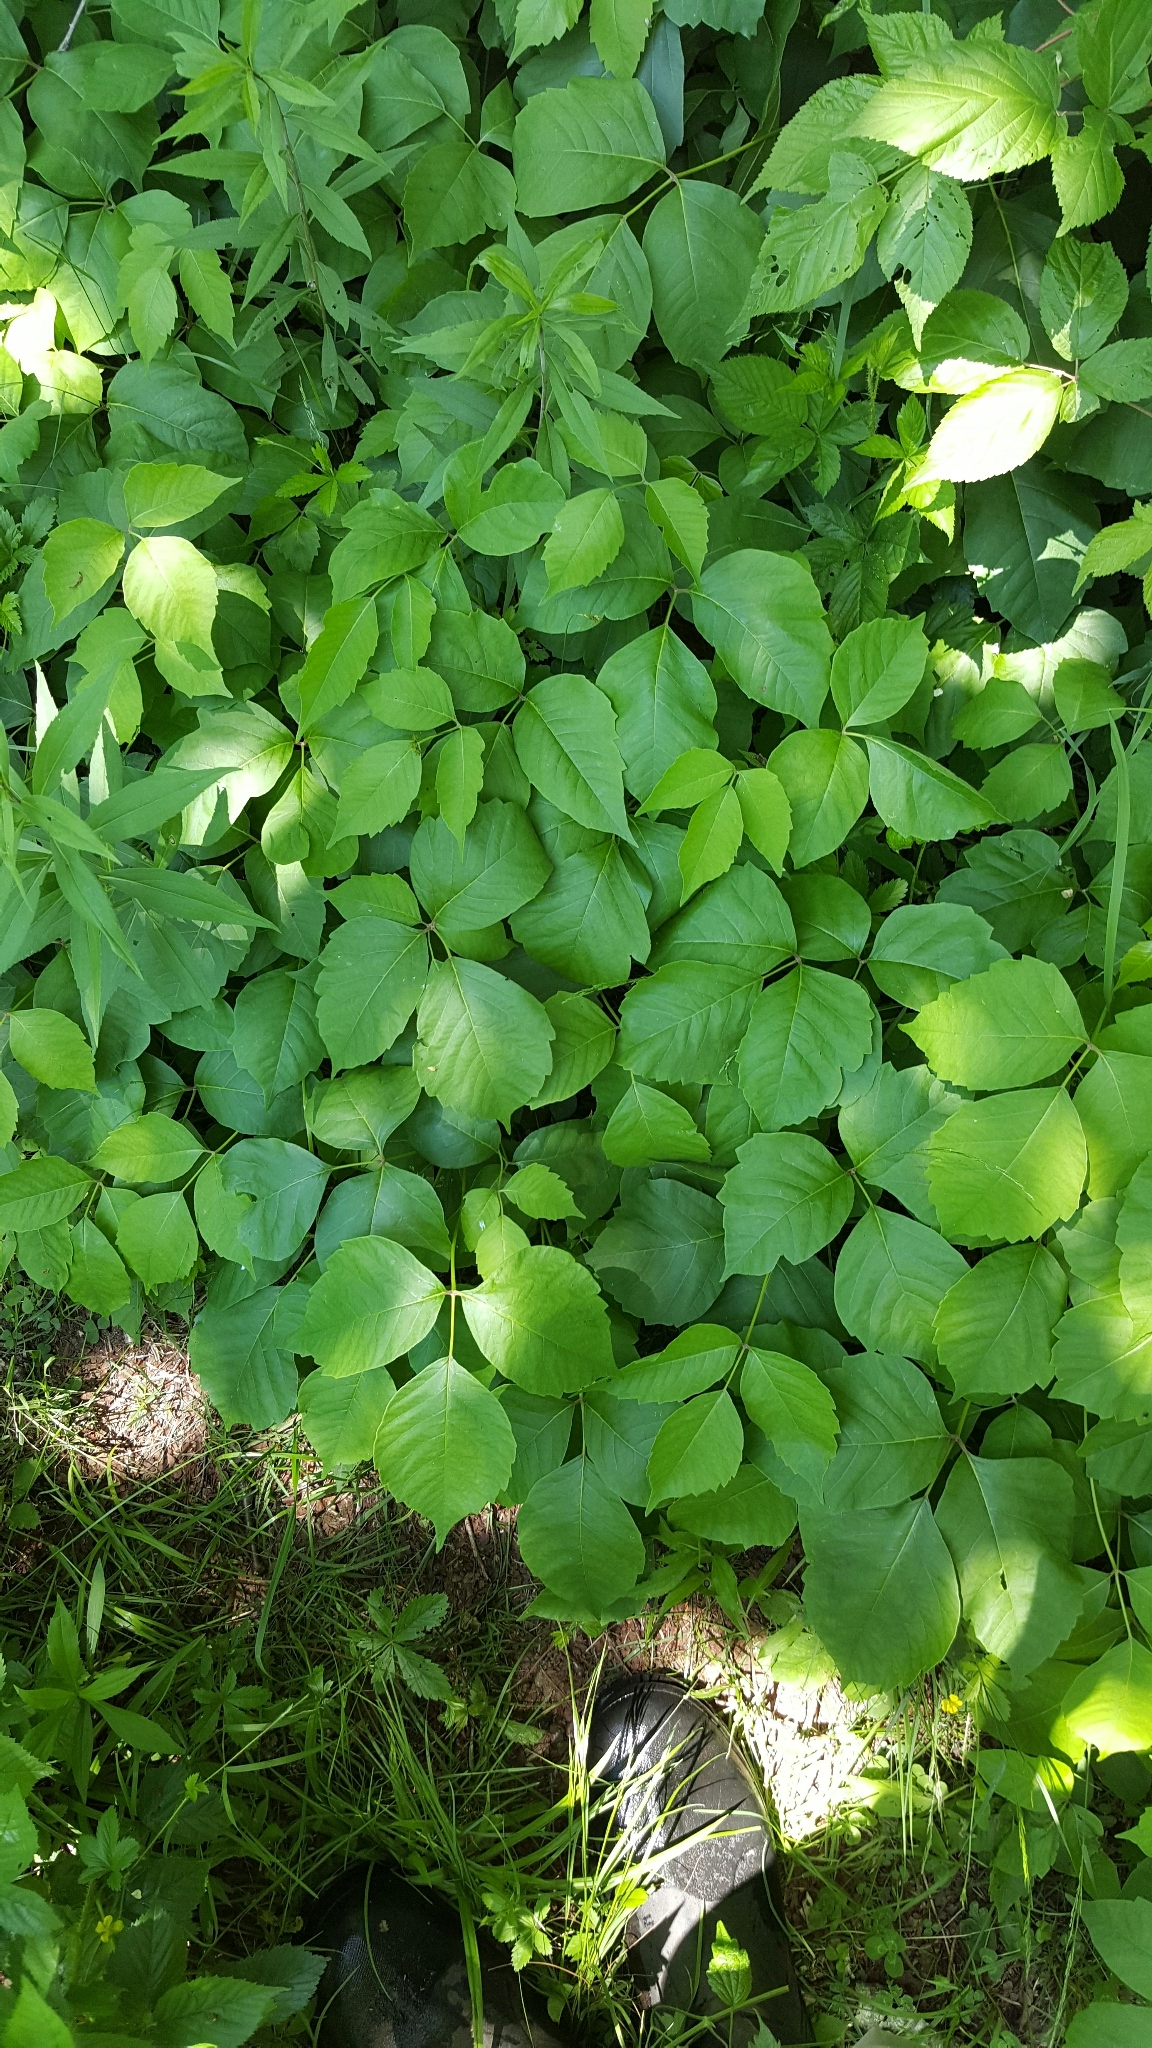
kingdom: Plantae
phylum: Tracheophyta
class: Magnoliopsida
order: Sapindales
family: Anacardiaceae
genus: Toxicodendron
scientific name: Toxicodendron rydbergii
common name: Rydberg's poison-ivy
